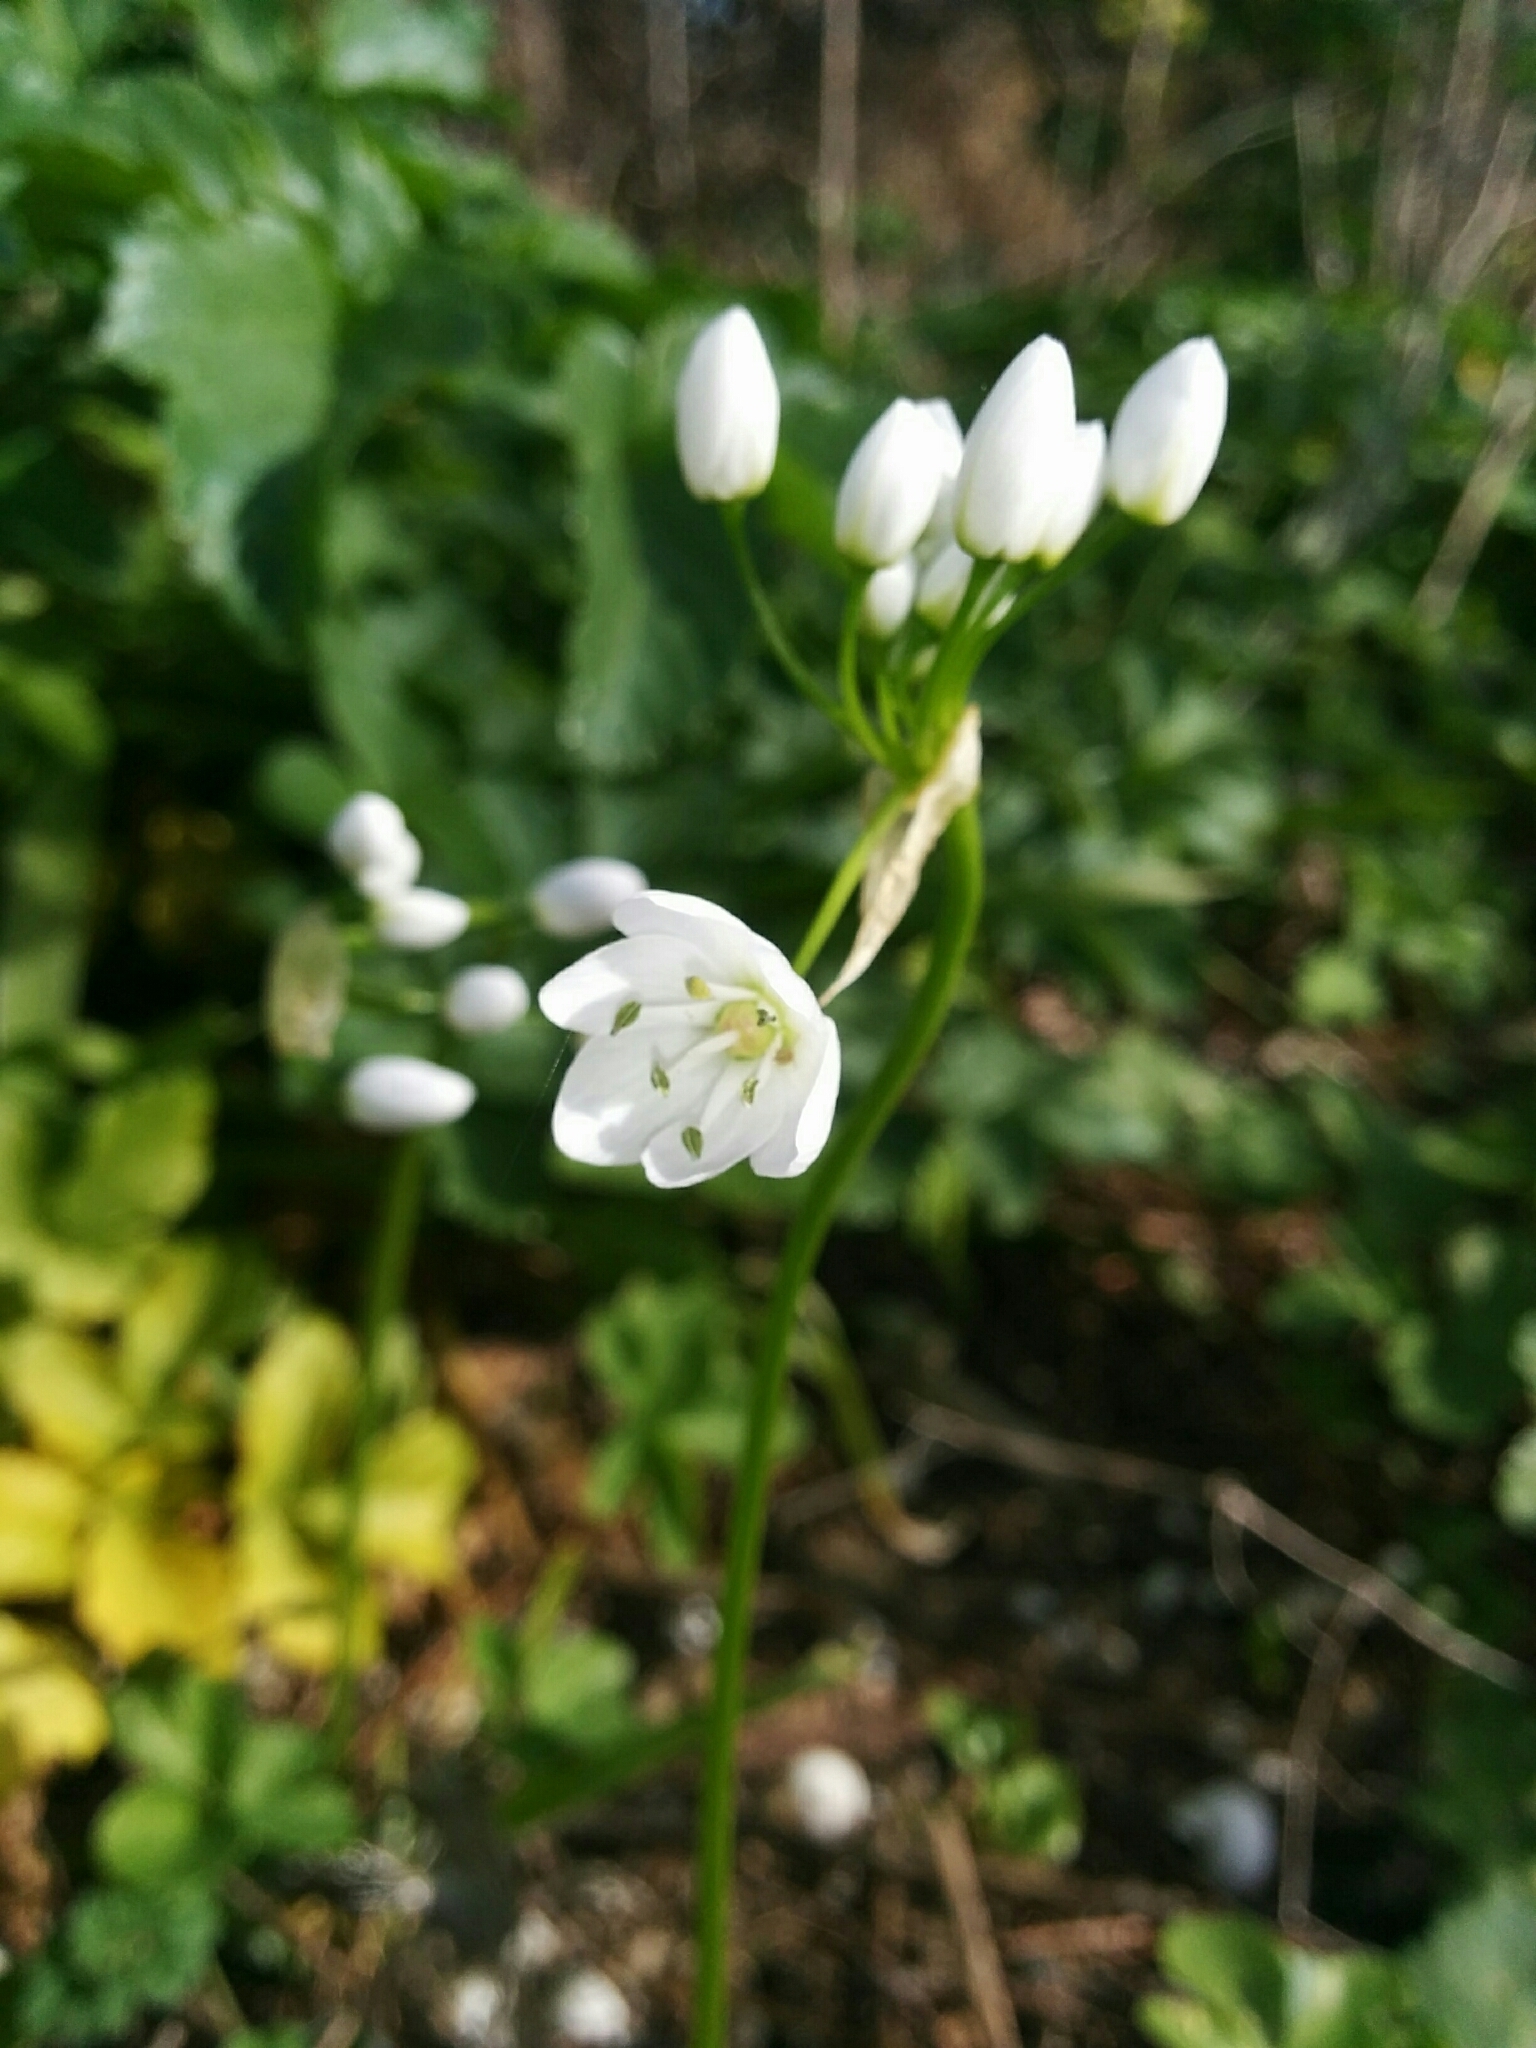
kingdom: Plantae
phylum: Tracheophyta
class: Liliopsida
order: Asparagales
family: Amaryllidaceae
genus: Allium
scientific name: Allium neapolitanum
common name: Neapolitan garlic
